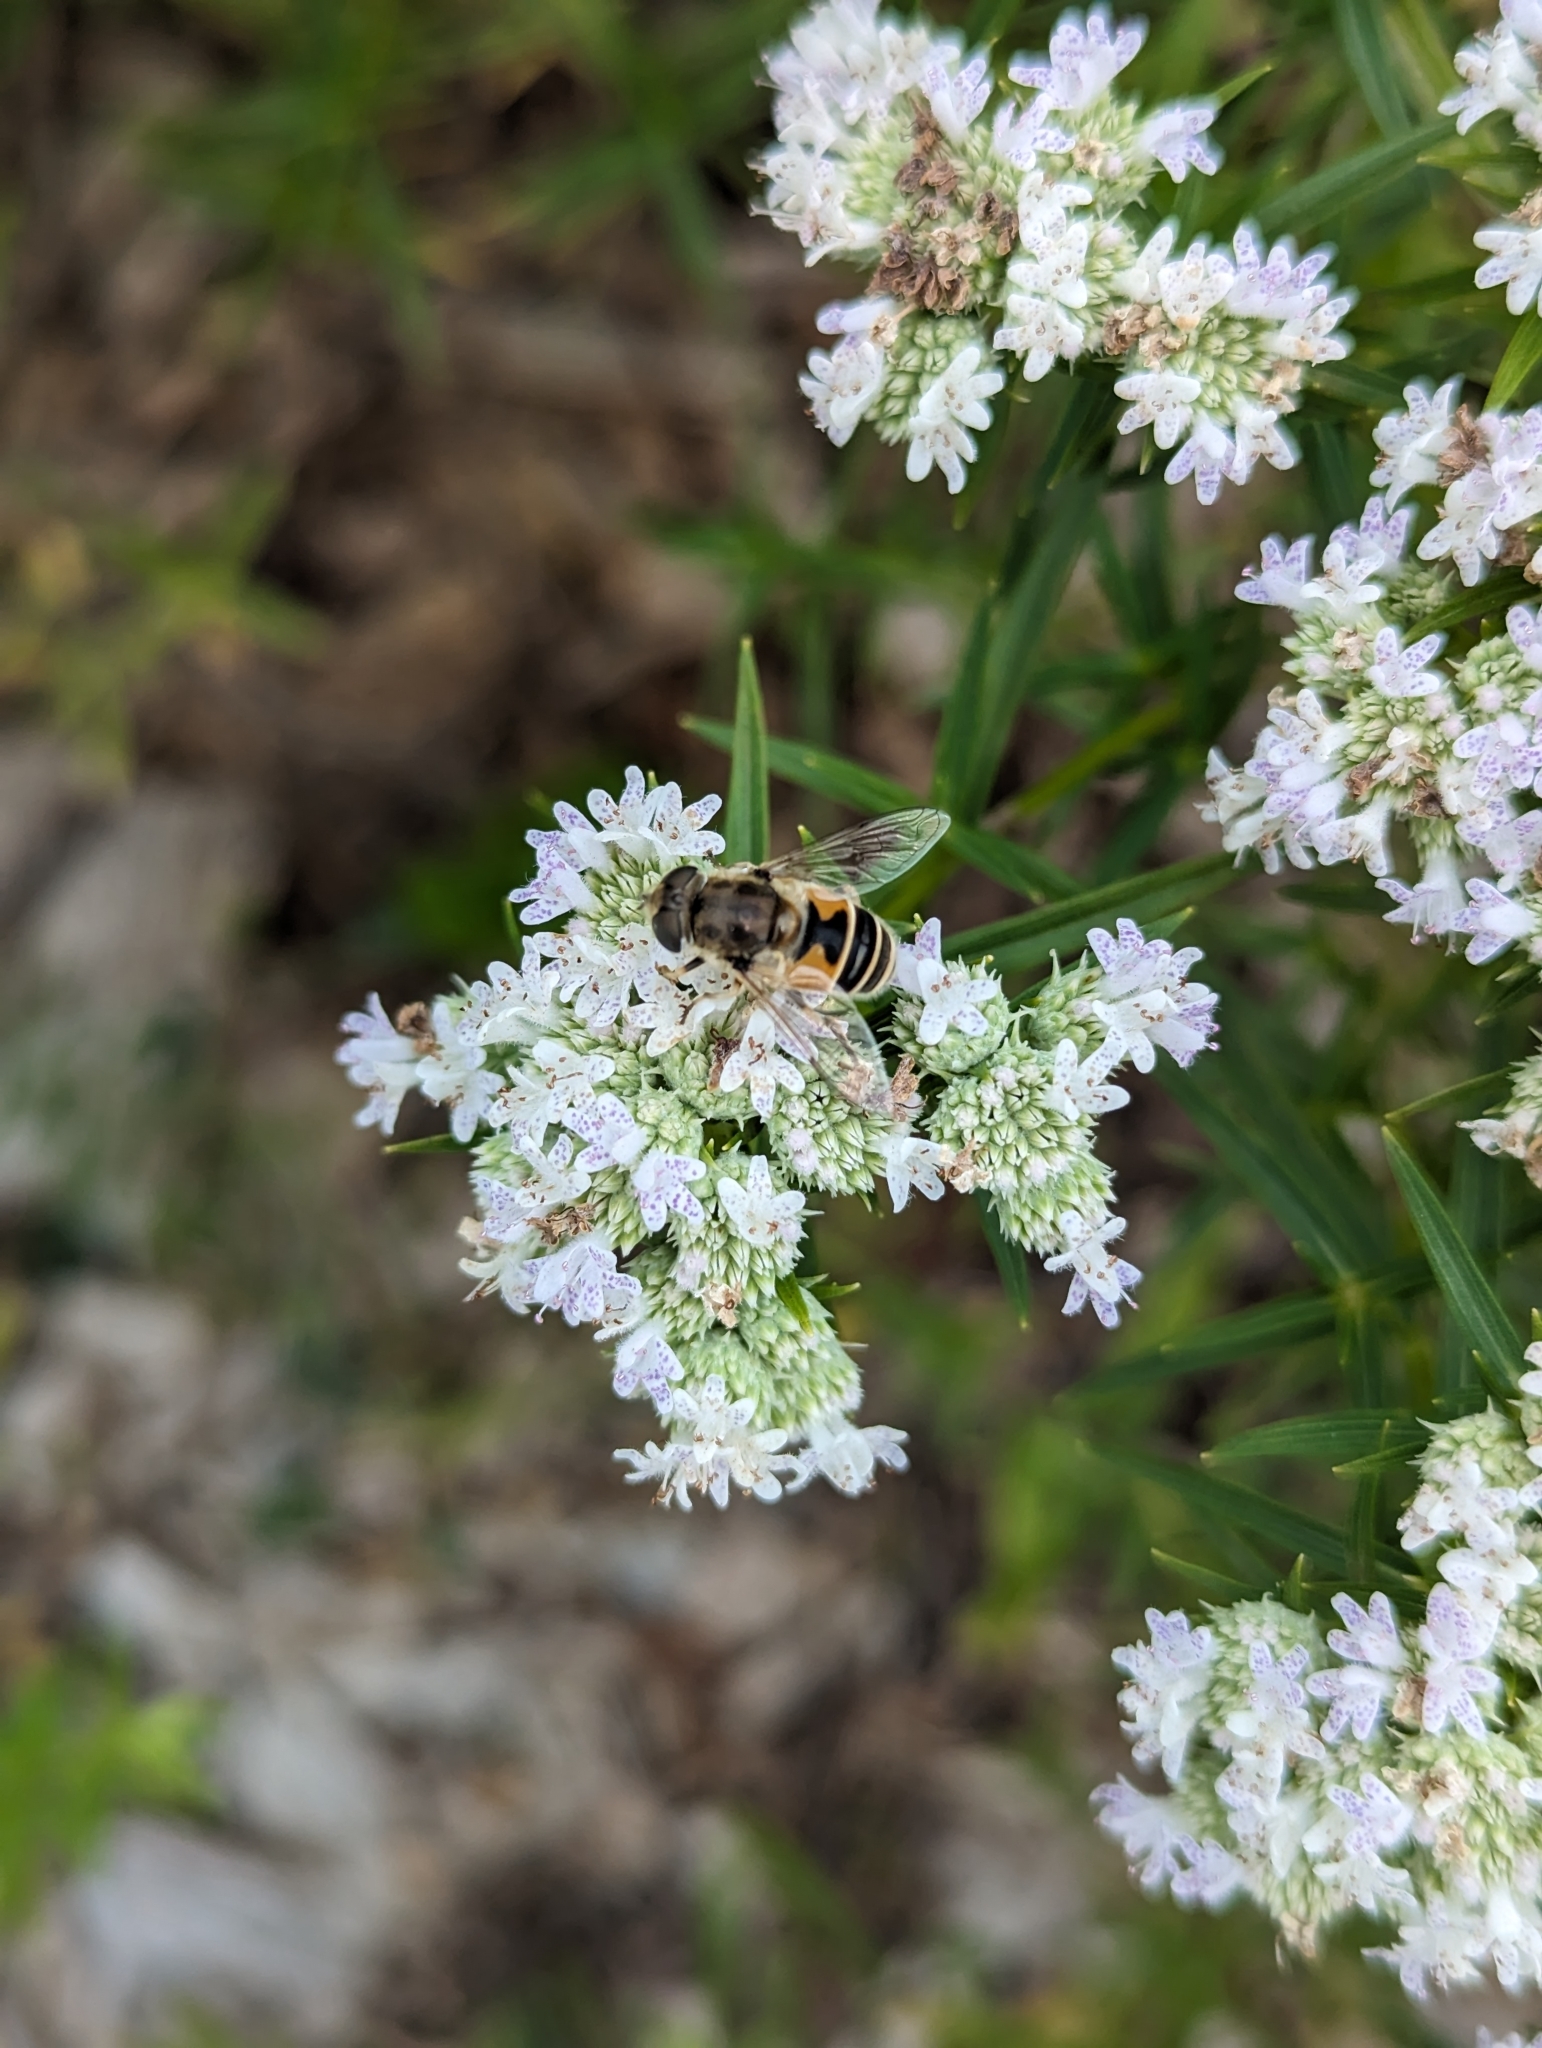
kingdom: Animalia
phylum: Arthropoda
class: Insecta
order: Diptera
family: Syrphidae
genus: Eristalis
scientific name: Eristalis arbustorum
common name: Hover fly
